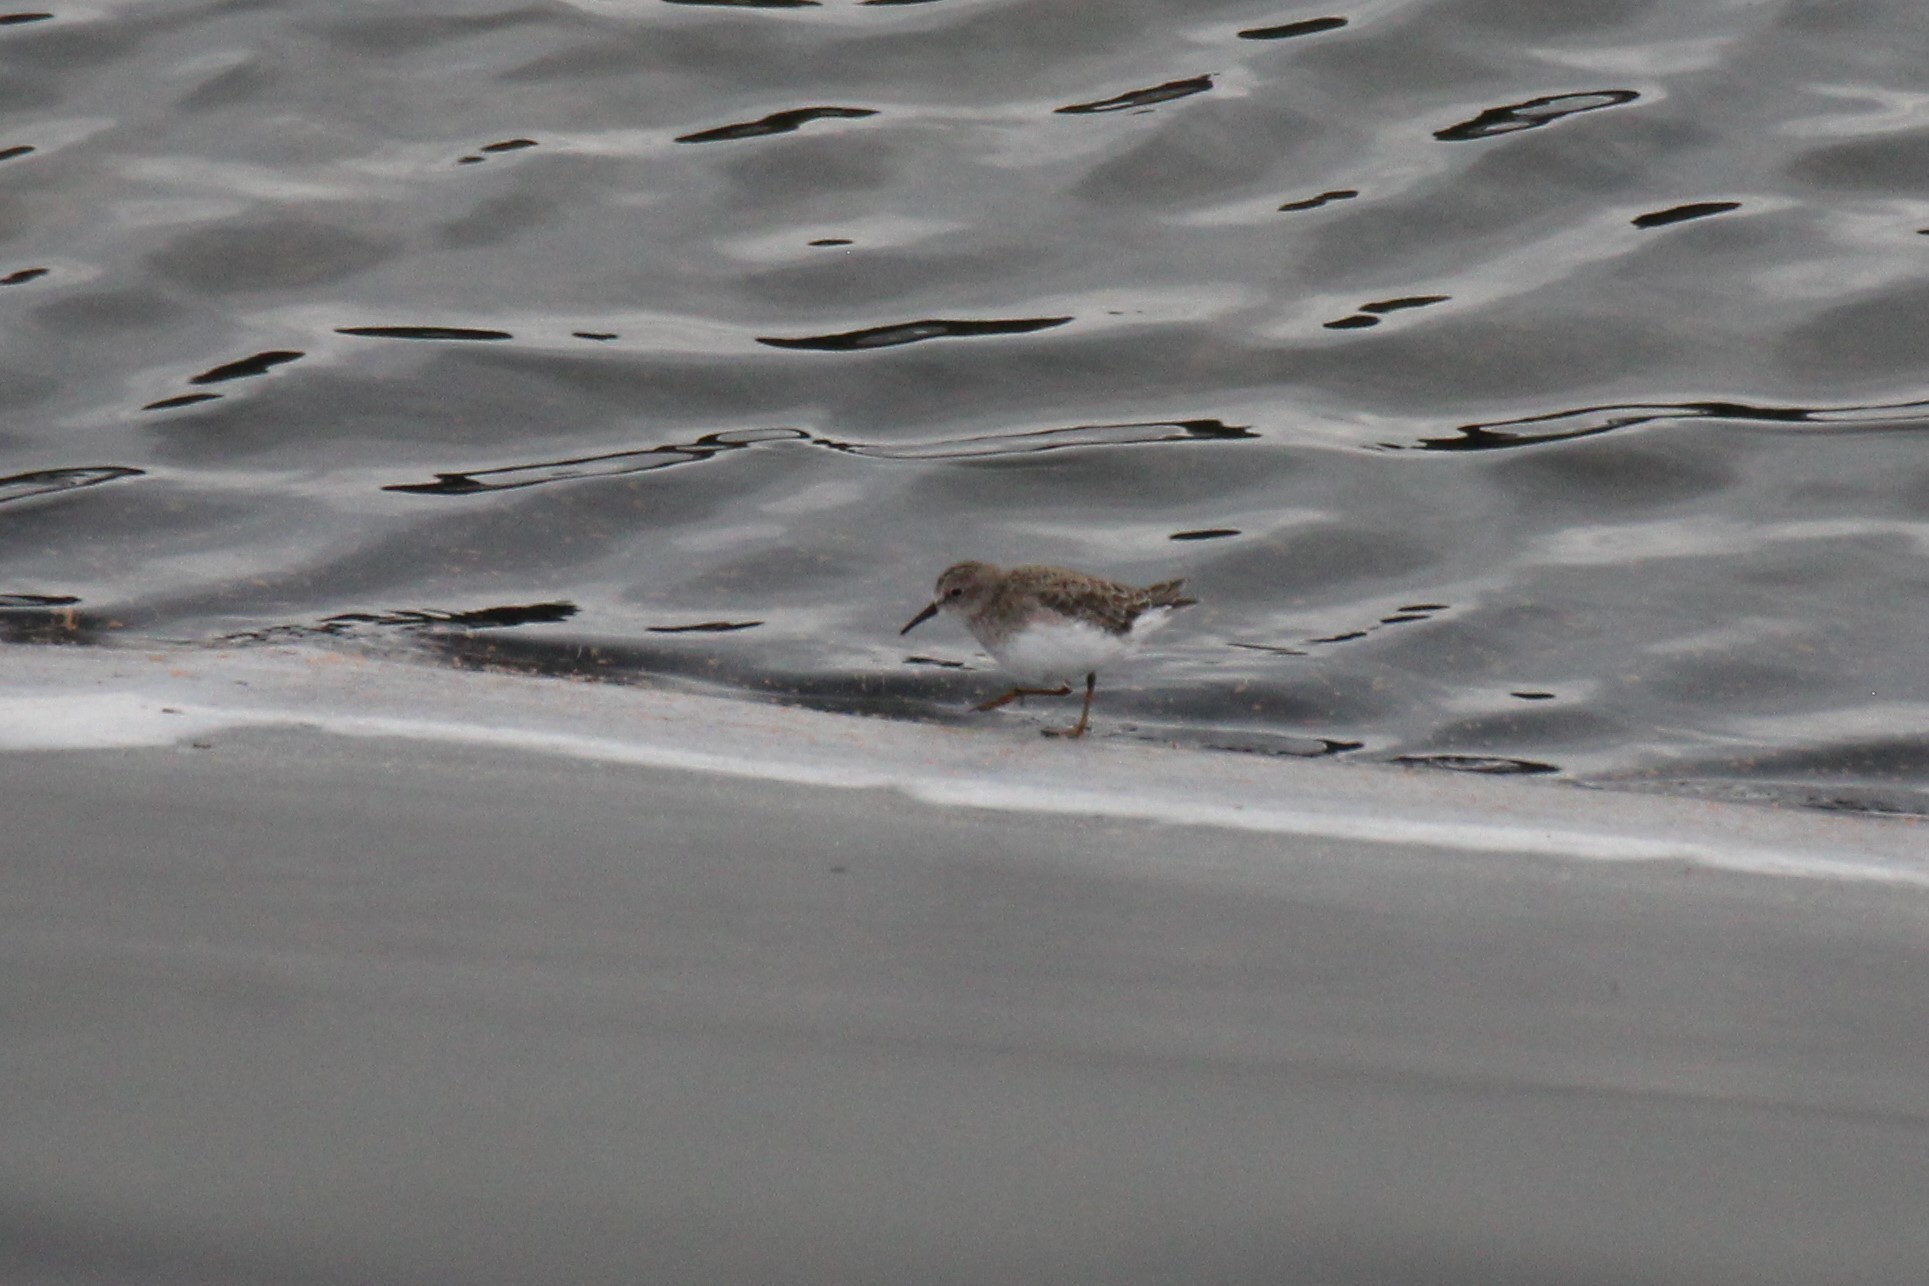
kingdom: Animalia
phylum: Chordata
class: Aves
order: Charadriiformes
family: Scolopacidae
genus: Calidris
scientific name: Calidris minutilla
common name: Least sandpiper
